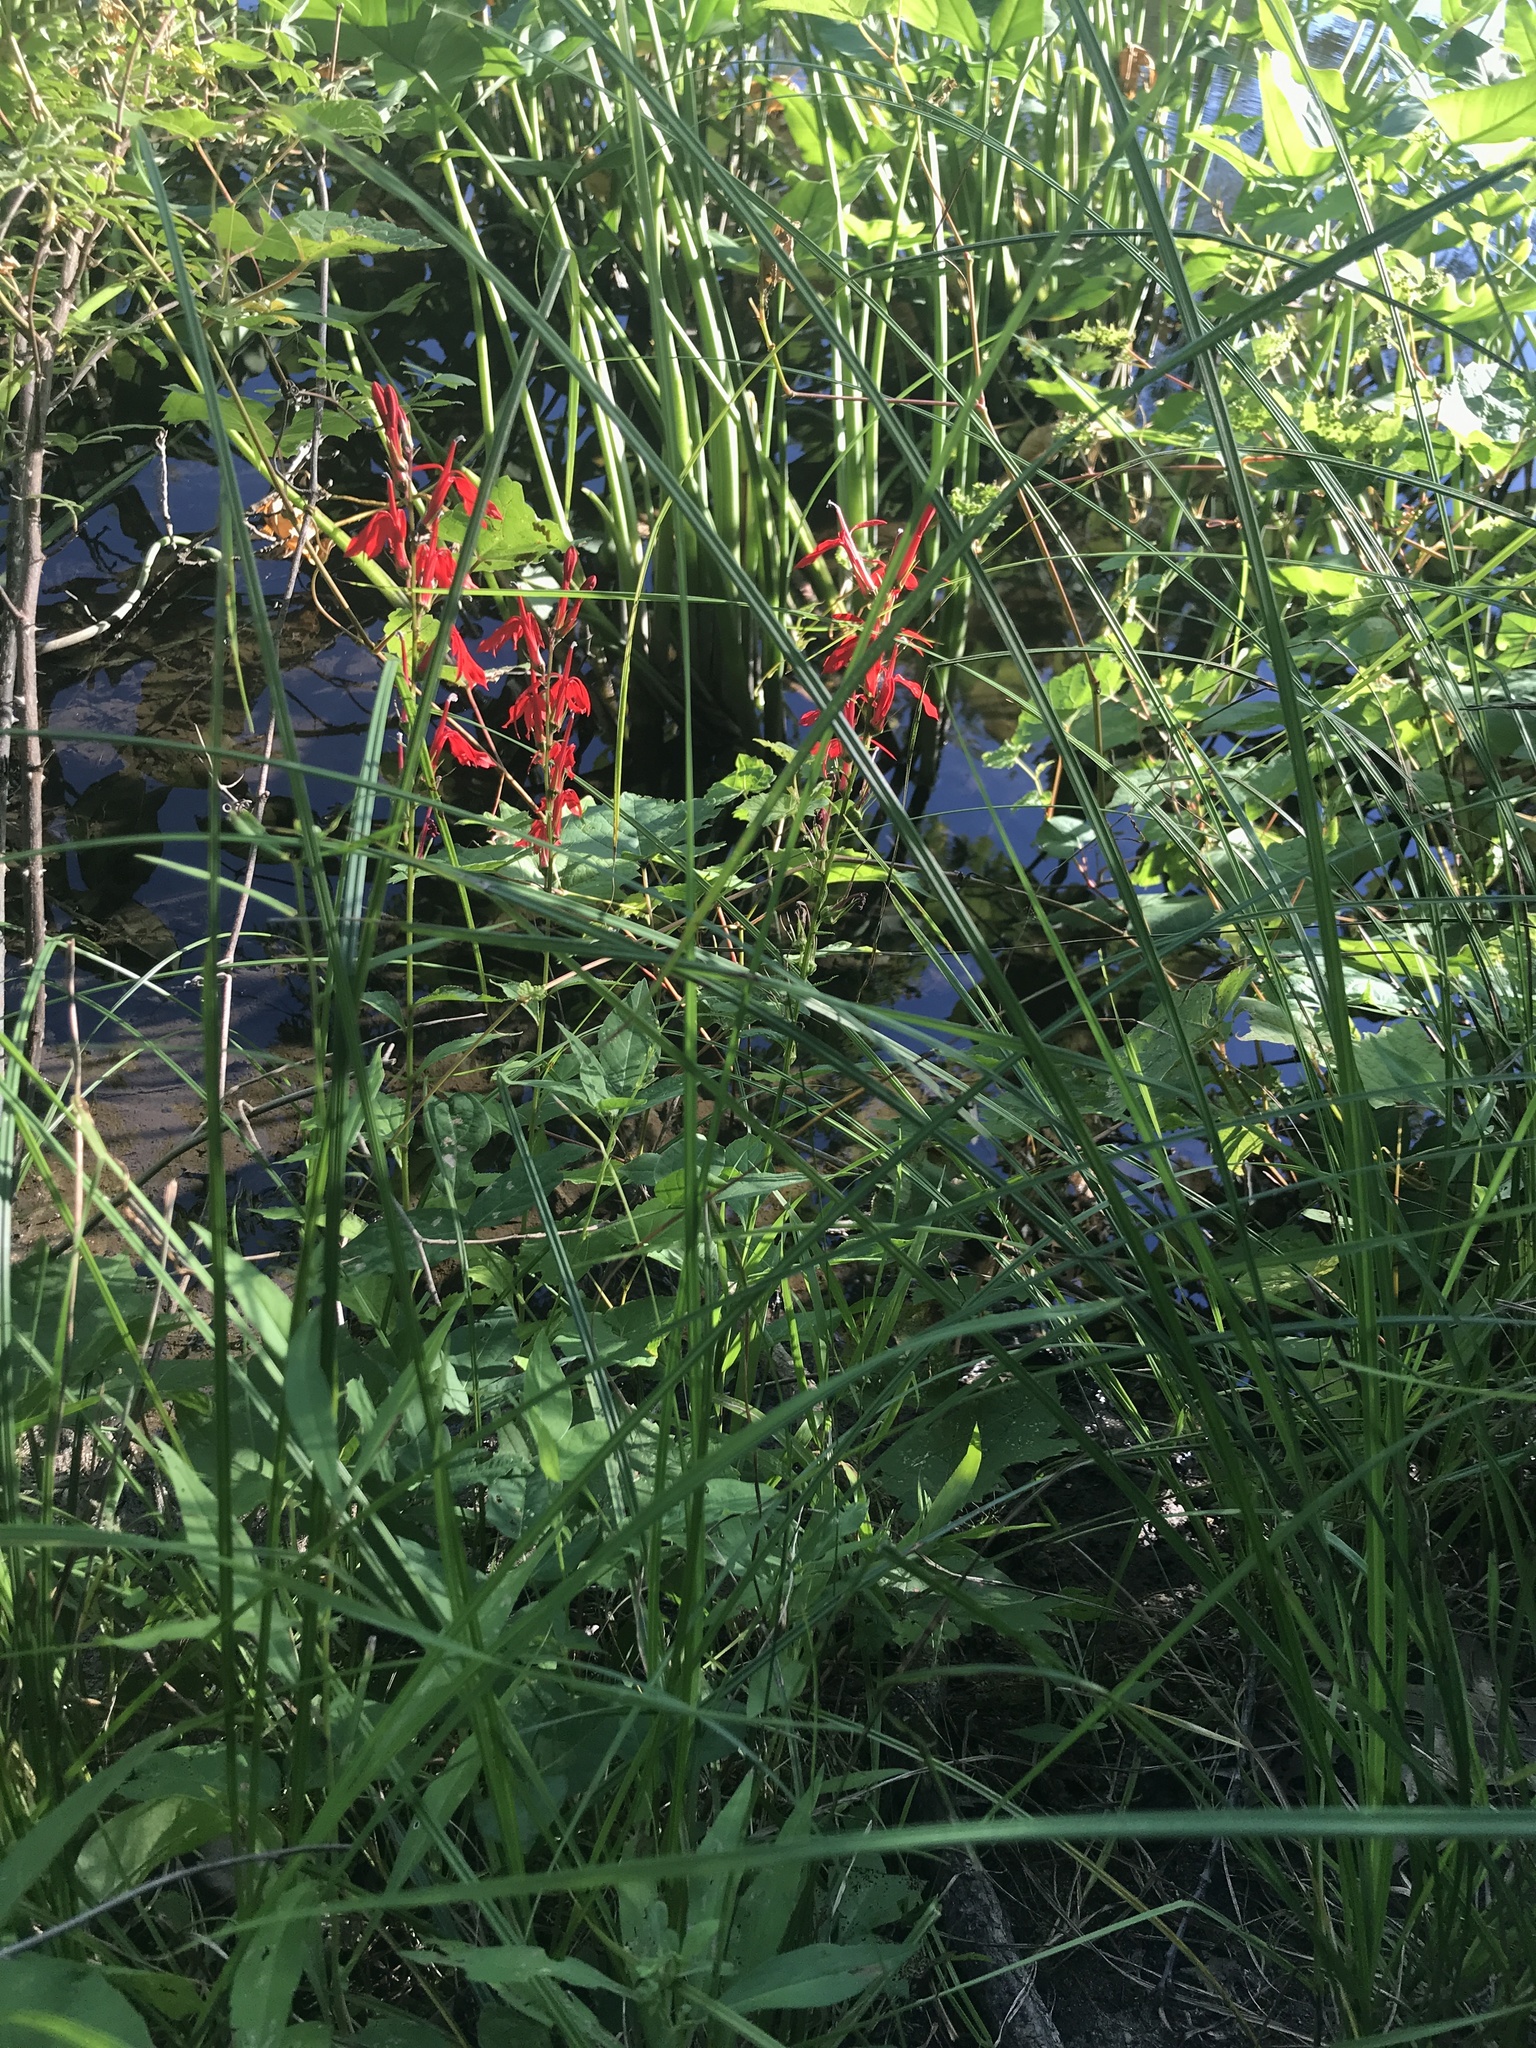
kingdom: Plantae
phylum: Tracheophyta
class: Magnoliopsida
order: Asterales
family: Campanulaceae
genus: Lobelia
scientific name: Lobelia cardinalis
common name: Cardinal flower
